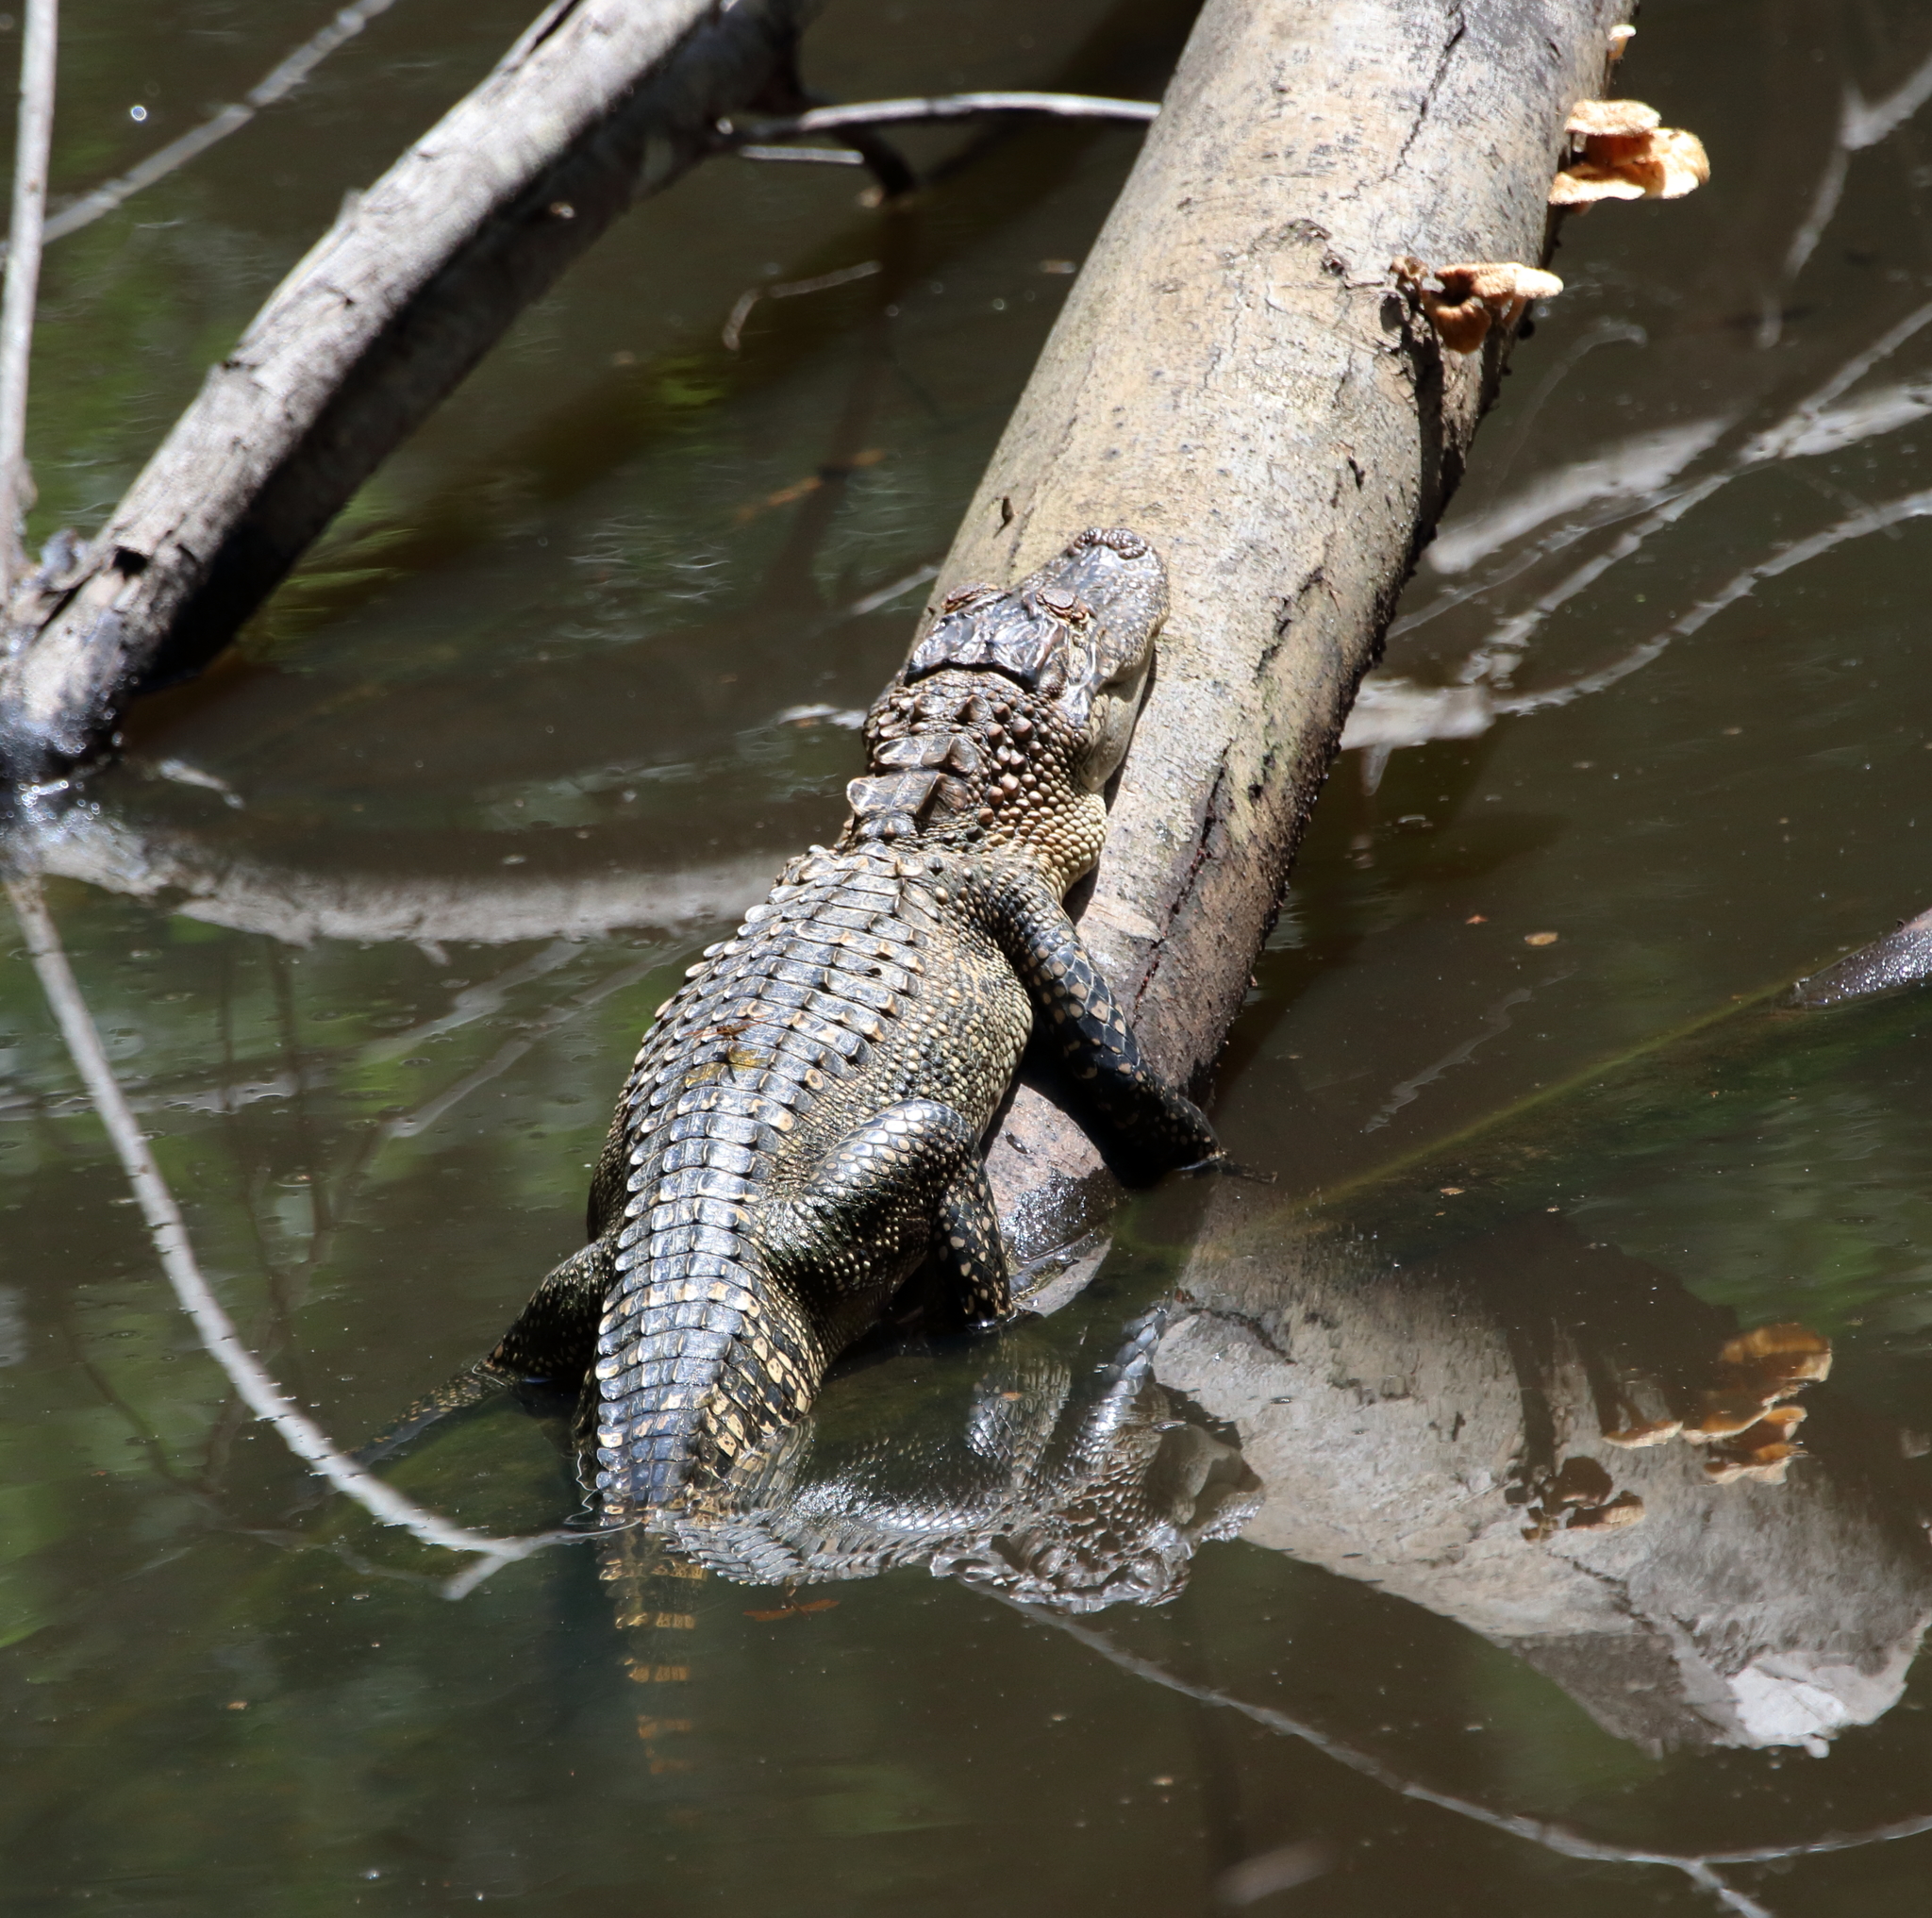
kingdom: Animalia
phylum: Chordata
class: Crocodylia
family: Alligatoridae
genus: Alligator
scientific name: Alligator mississippiensis
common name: American alligator
